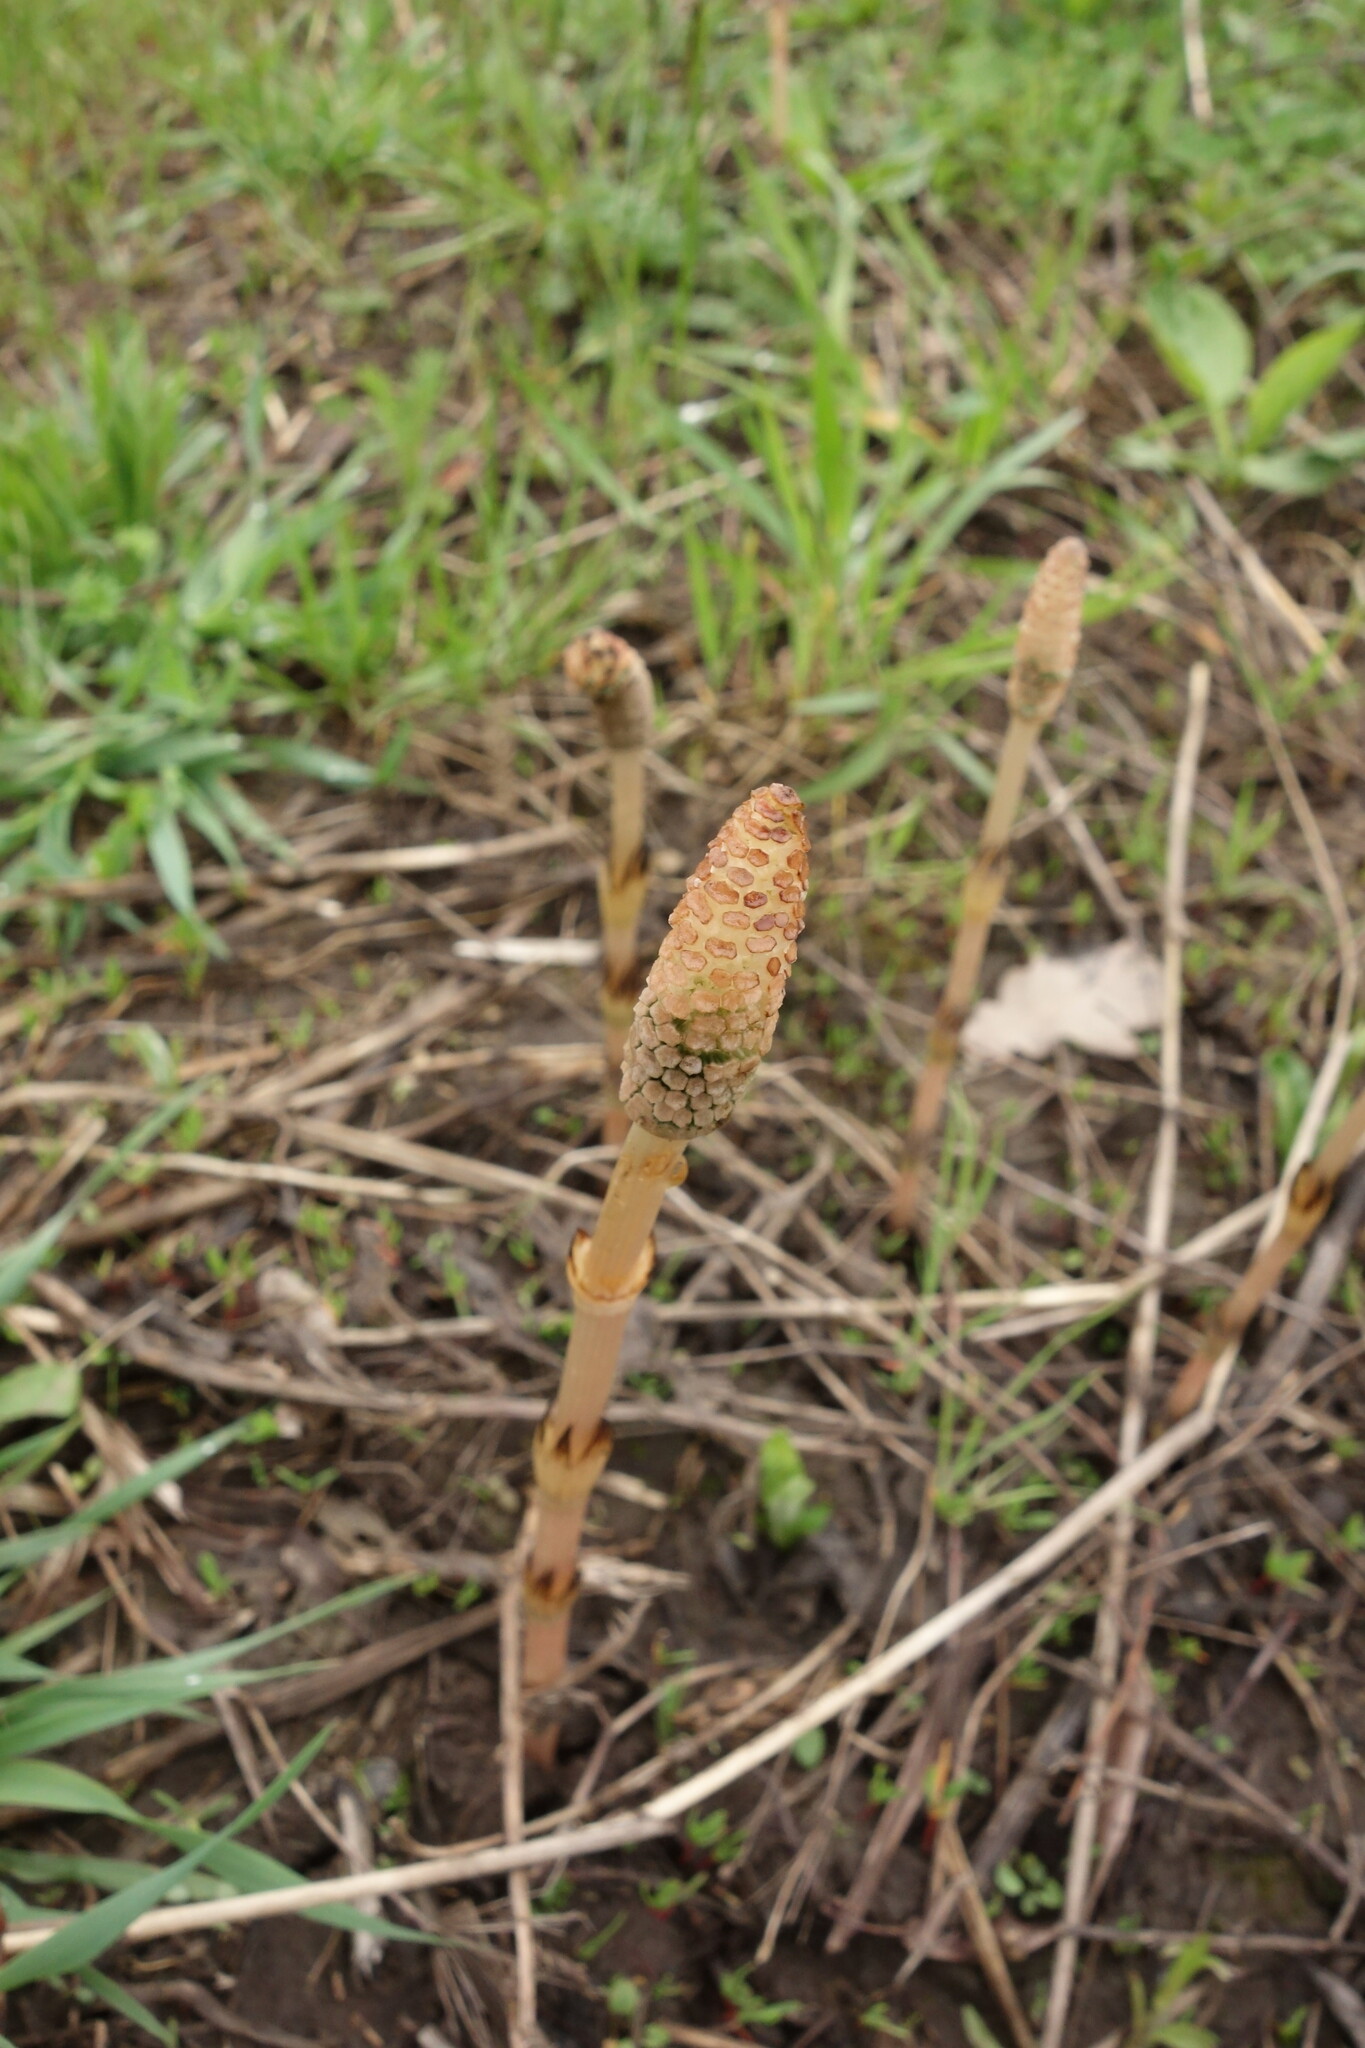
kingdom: Plantae
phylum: Tracheophyta
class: Polypodiopsida
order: Equisetales
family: Equisetaceae
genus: Equisetum
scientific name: Equisetum arvense
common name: Field horsetail
